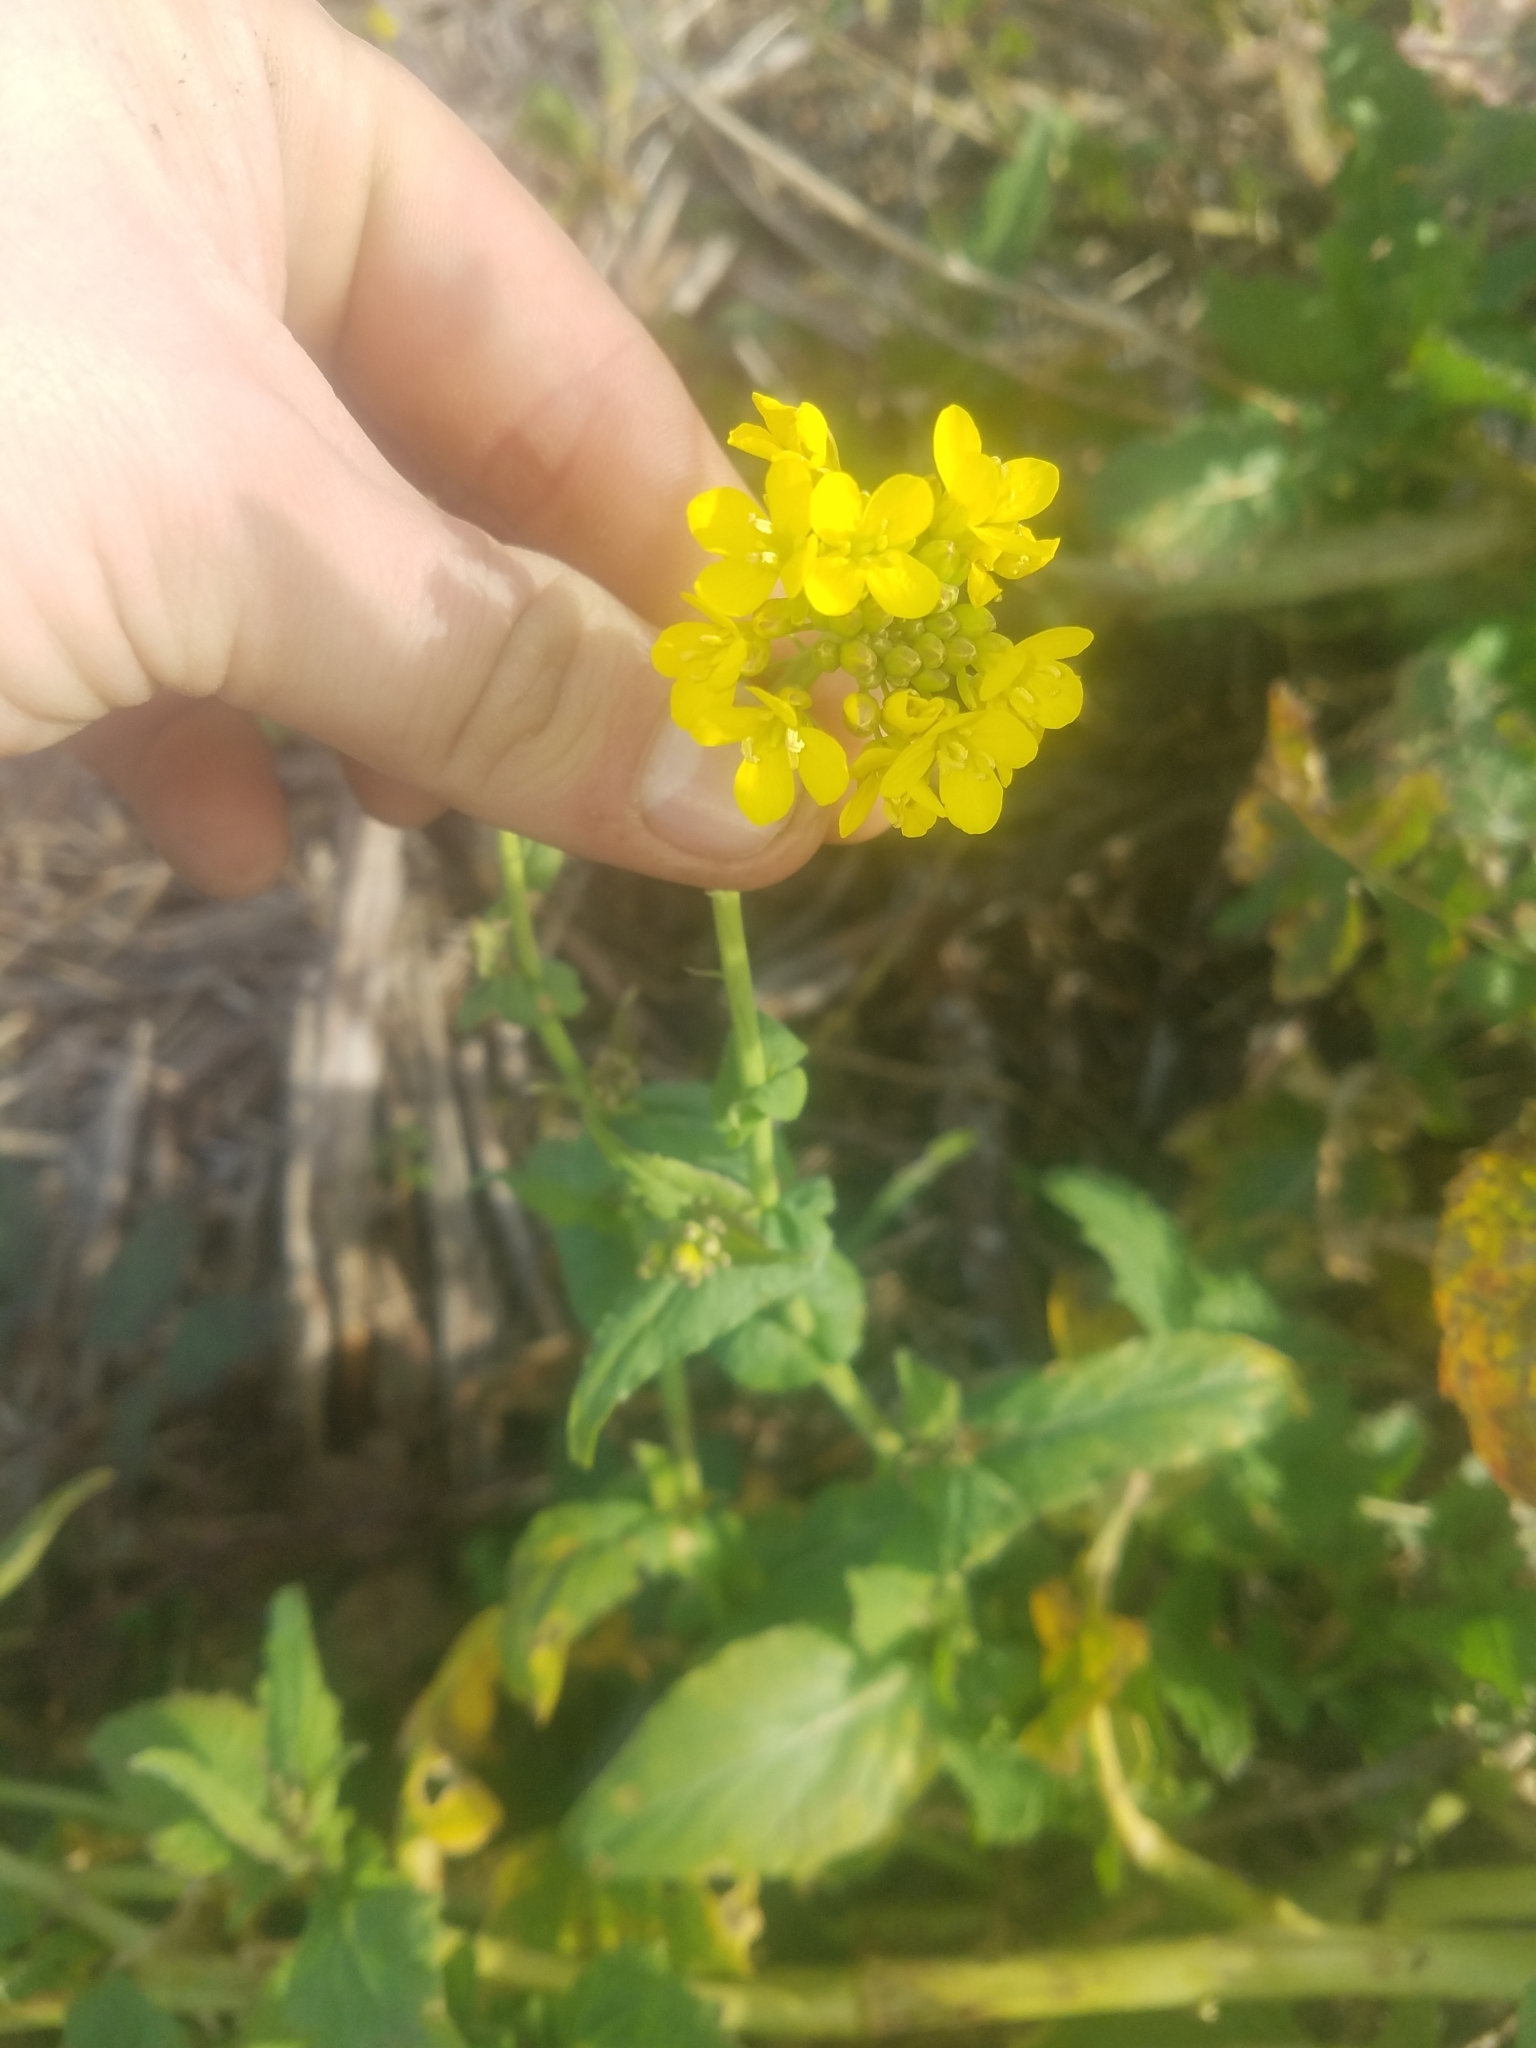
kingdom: Plantae
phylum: Tracheophyta
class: Magnoliopsida
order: Brassicales
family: Brassicaceae
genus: Brassica
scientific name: Brassica rapa
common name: Field mustard
